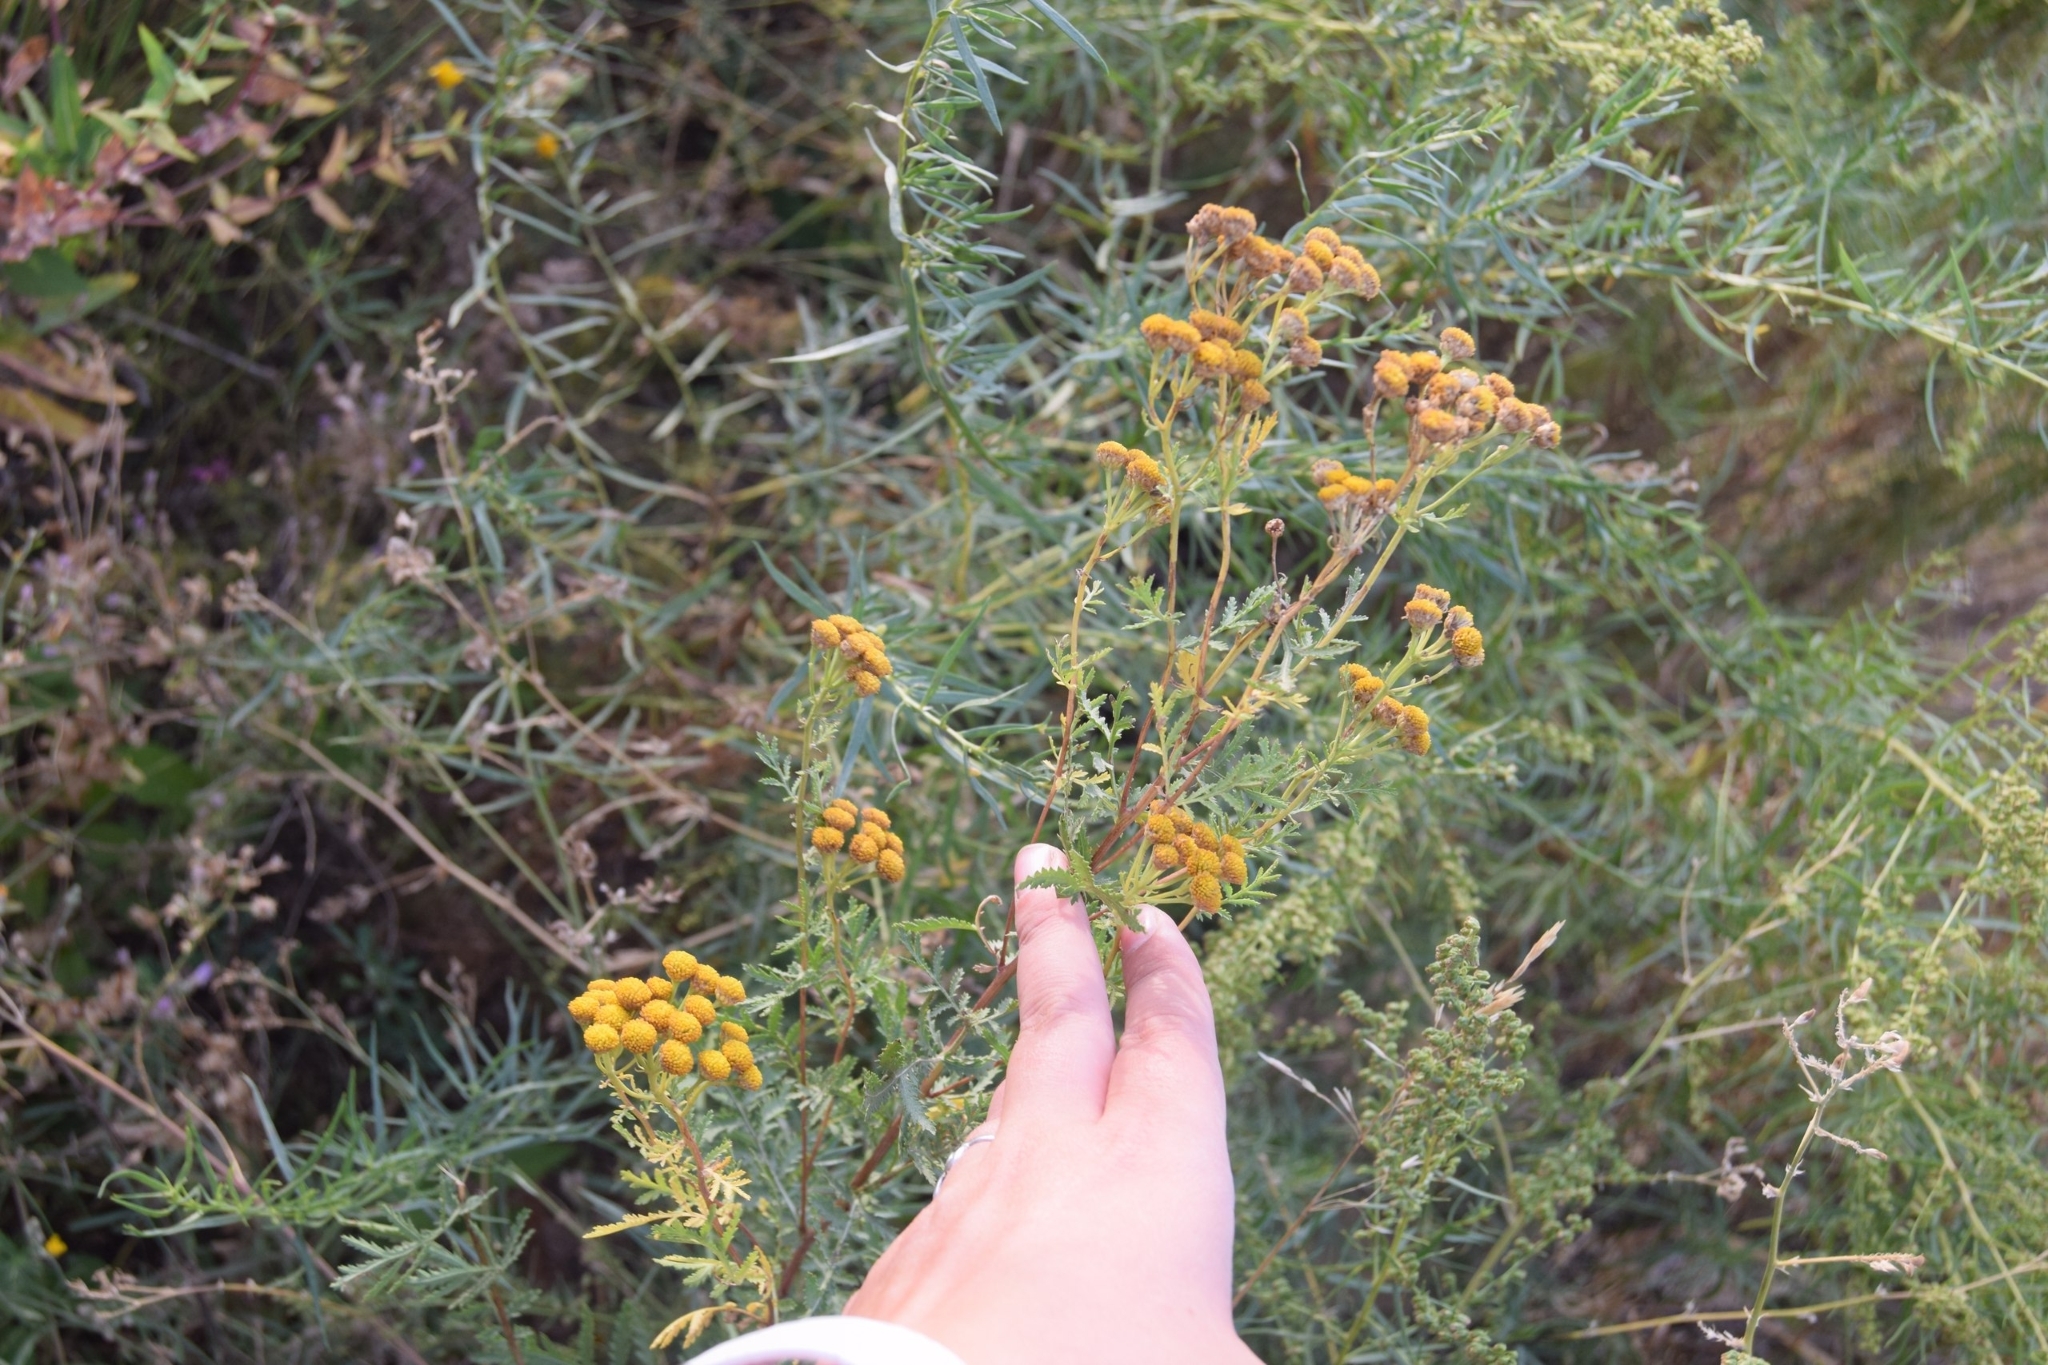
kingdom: Plantae
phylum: Tracheophyta
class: Magnoliopsida
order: Asterales
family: Asteraceae
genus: Tanacetum
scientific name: Tanacetum vulgare
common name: Common tansy
